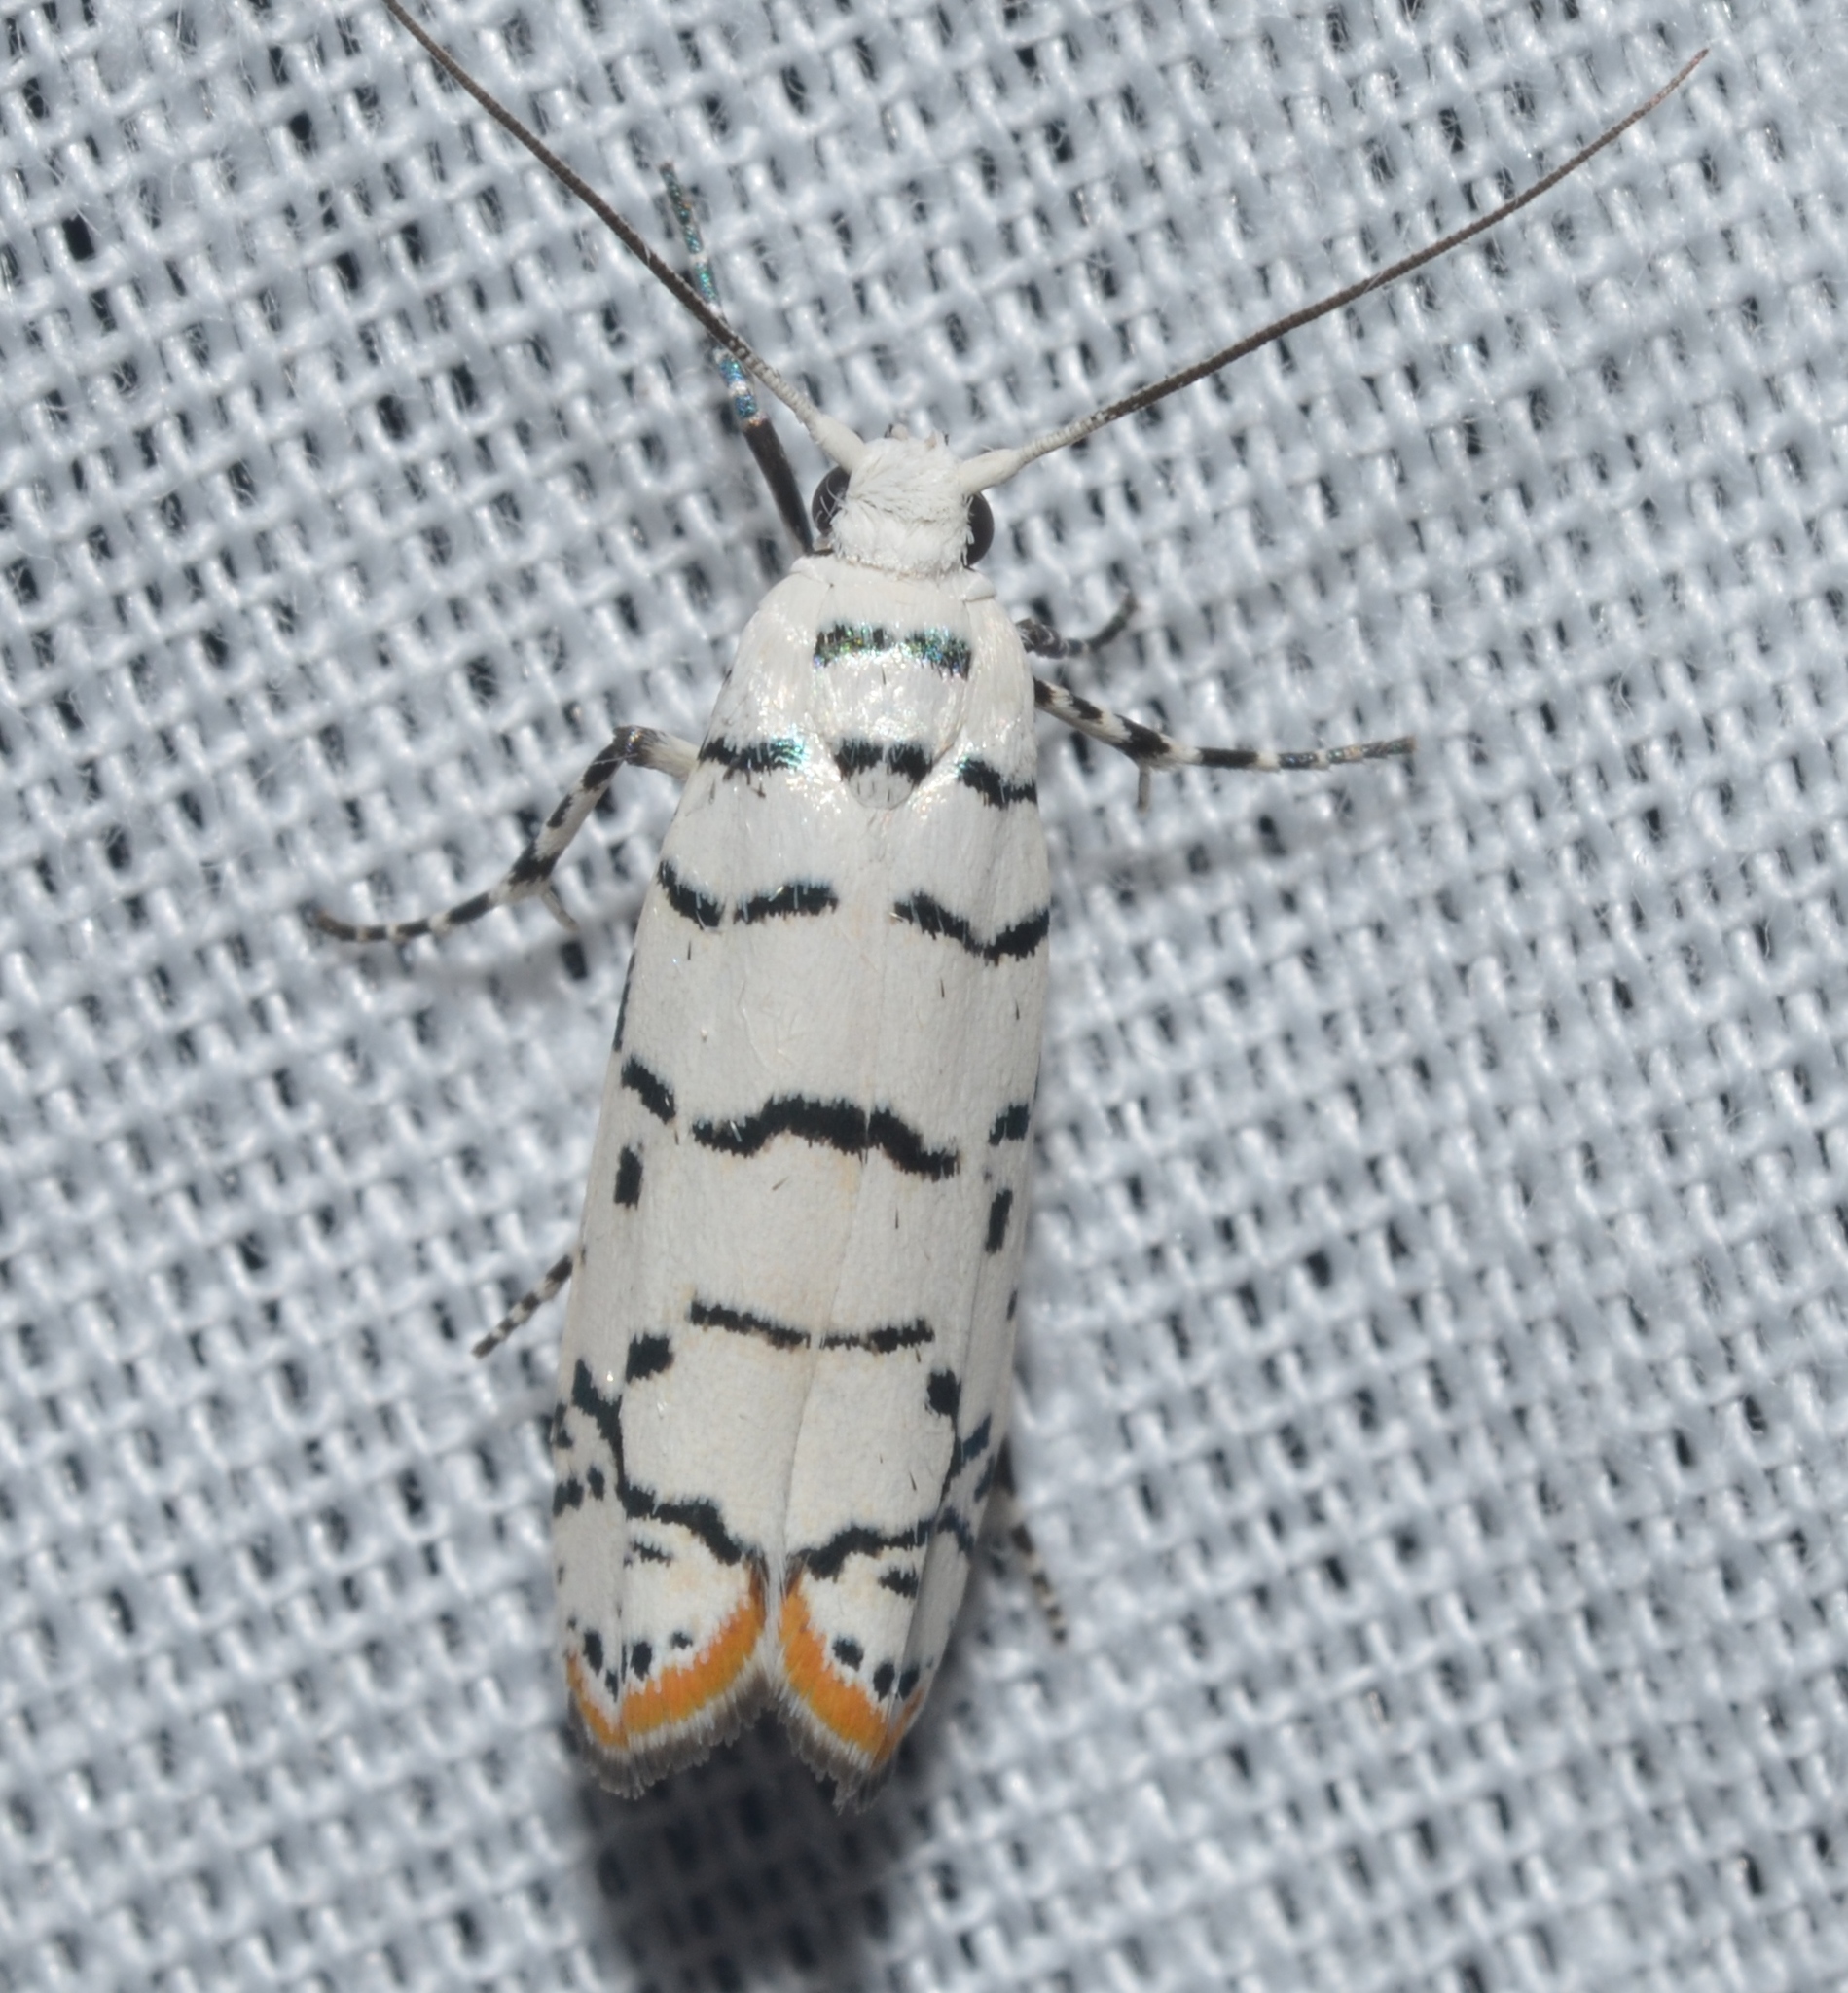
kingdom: Animalia
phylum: Arthropoda
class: Insecta
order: Lepidoptera
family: Ethmiidae
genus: Ethmia
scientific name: Ethmia delliella
